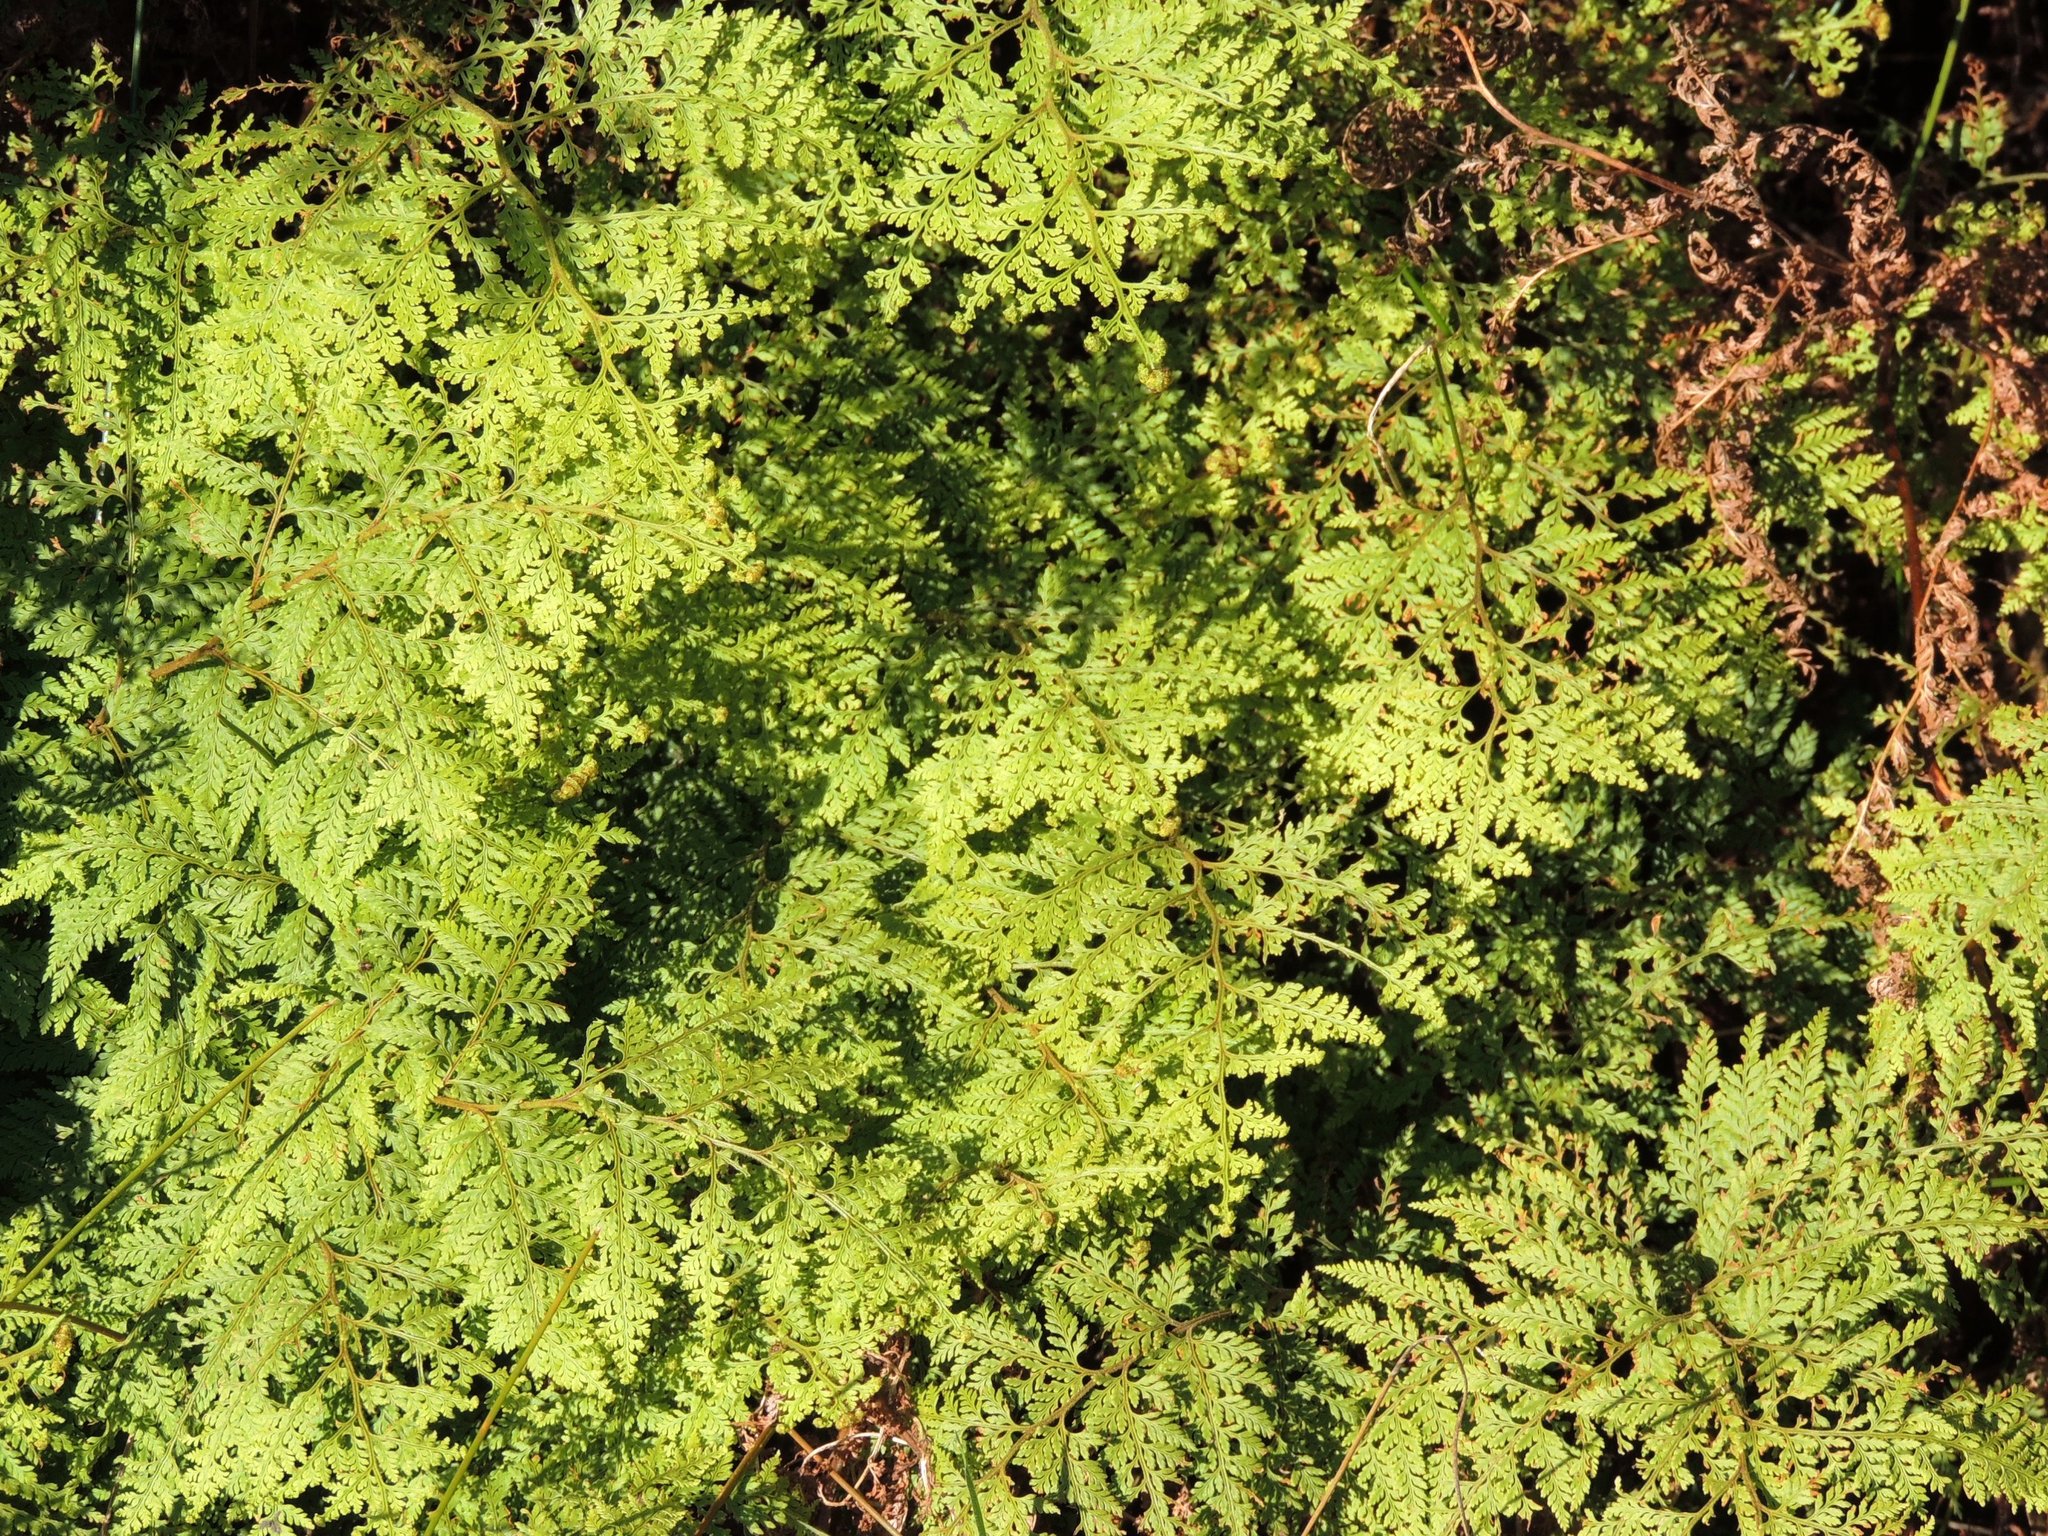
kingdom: Plantae
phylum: Tracheophyta
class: Polypodiopsida
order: Polypodiales
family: Dennstaedtiaceae
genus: Paesia
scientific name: Paesia scaberula
